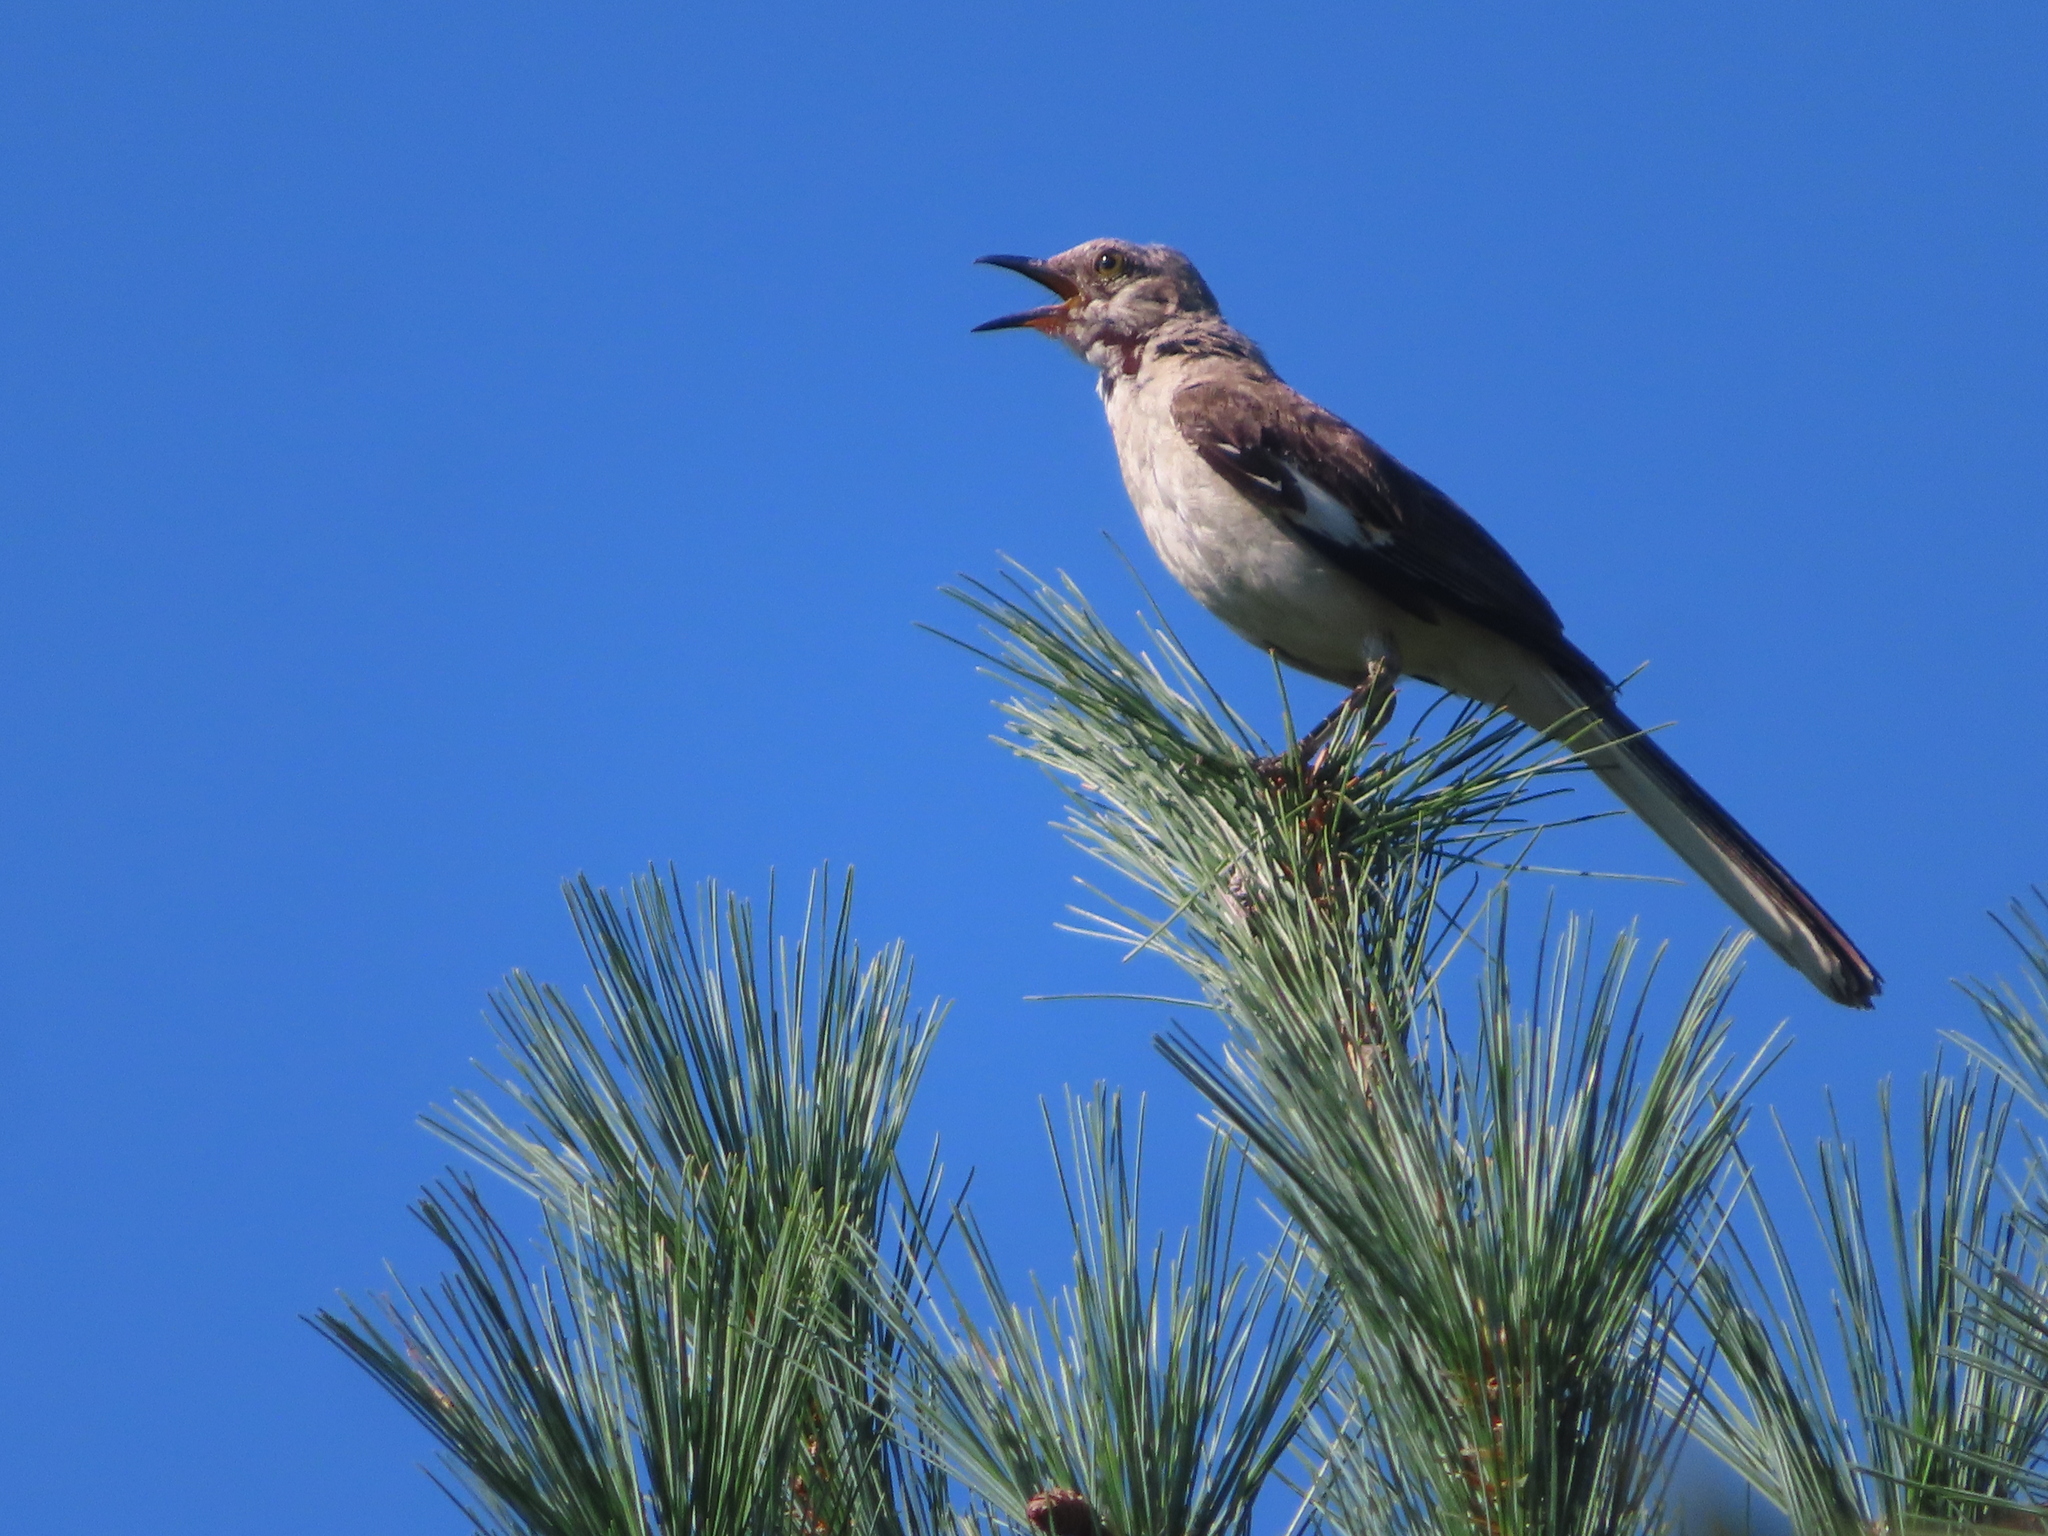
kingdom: Animalia
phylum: Chordata
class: Aves
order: Passeriformes
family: Mimidae
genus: Mimus
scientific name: Mimus polyglottos
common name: Northern mockingbird
